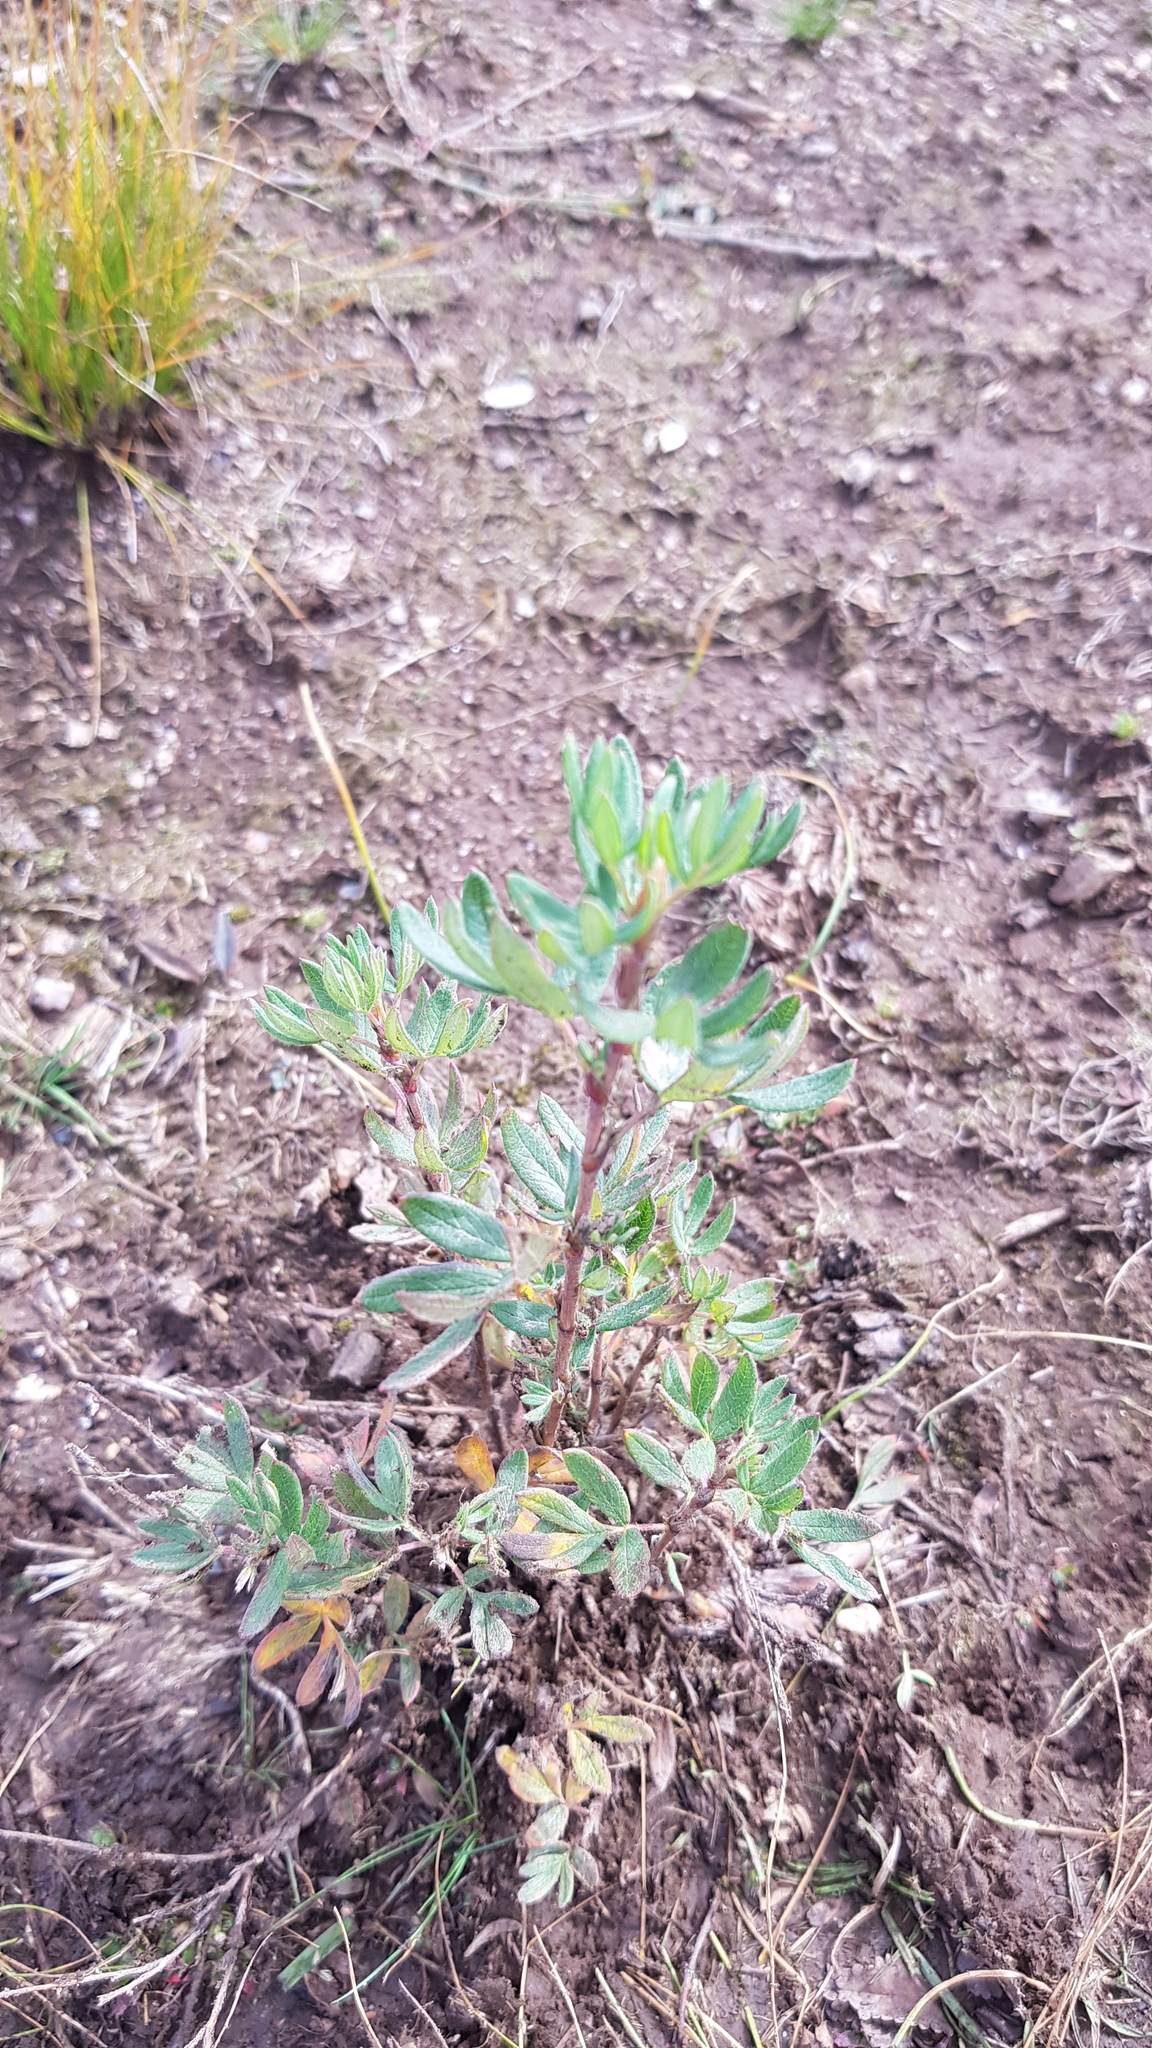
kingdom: Plantae
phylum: Tracheophyta
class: Magnoliopsida
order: Rosales
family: Rosaceae
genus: Dasiphora
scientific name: Dasiphora fruticosa
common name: Shrubby cinquefoil
